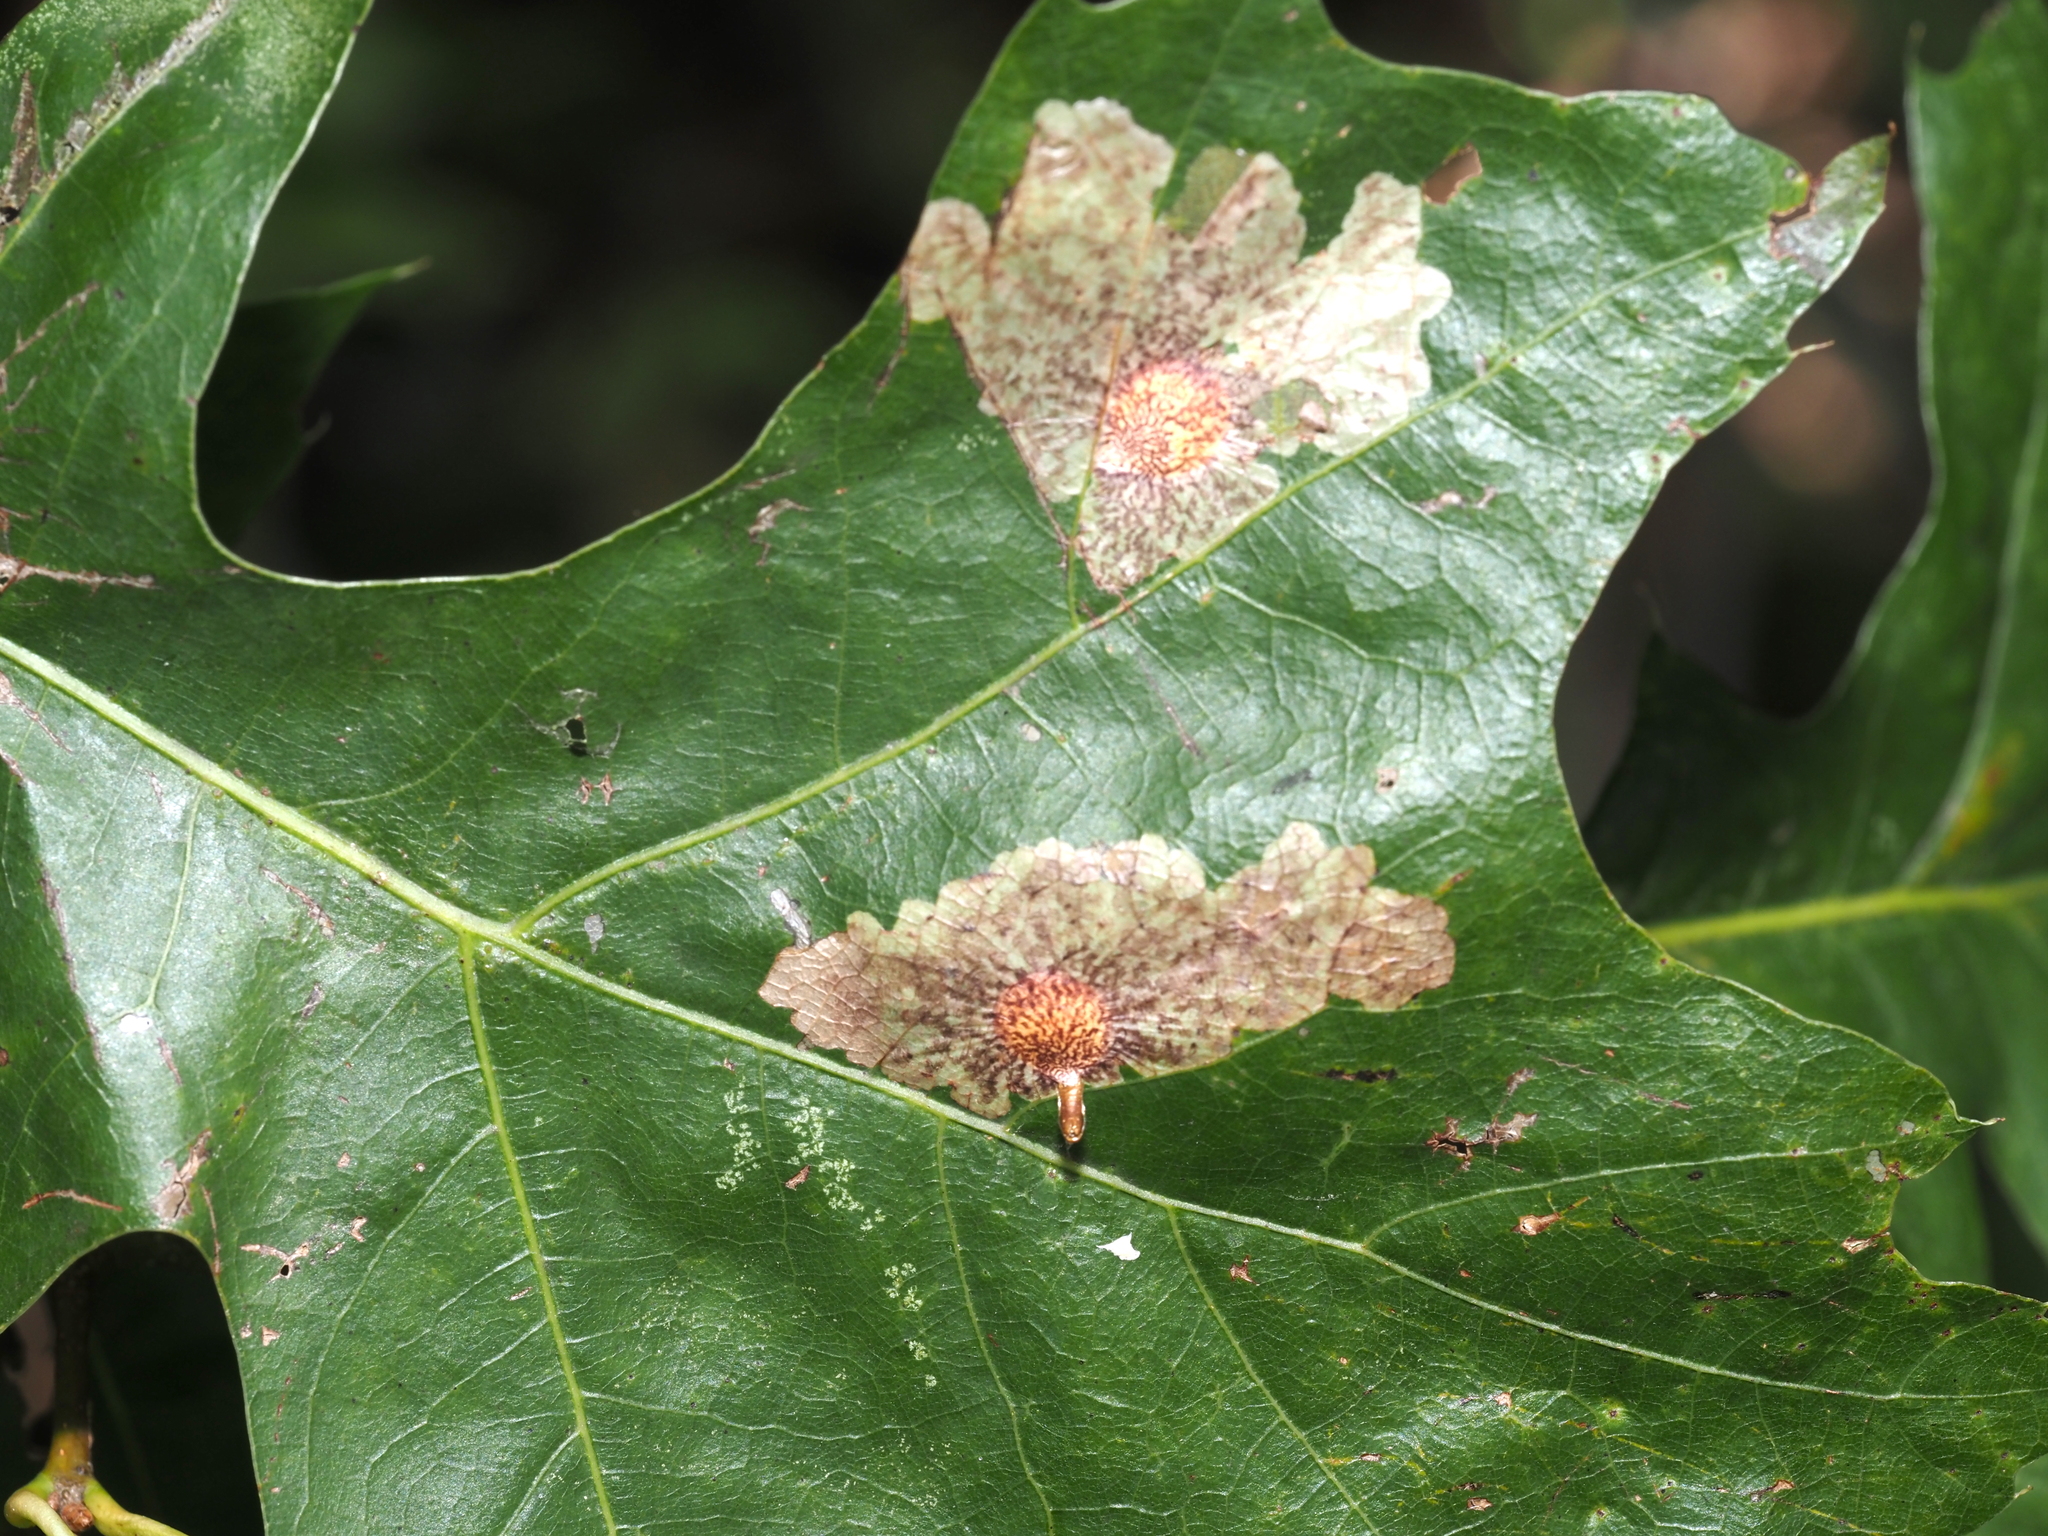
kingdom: Animalia
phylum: Arthropoda
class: Insecta
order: Lepidoptera
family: Tischeriidae
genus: Tischeria
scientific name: Tischeria quercitella
